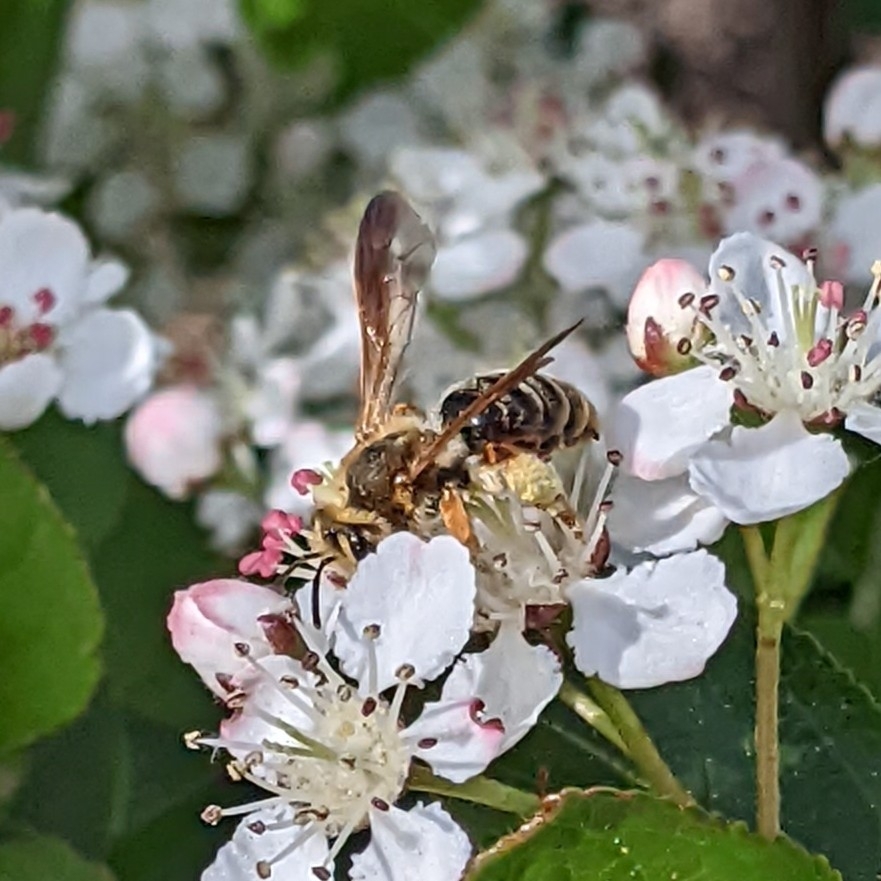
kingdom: Animalia
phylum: Arthropoda
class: Insecta
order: Hymenoptera
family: Andrenidae
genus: Andrena
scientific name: Andrena prunorum
